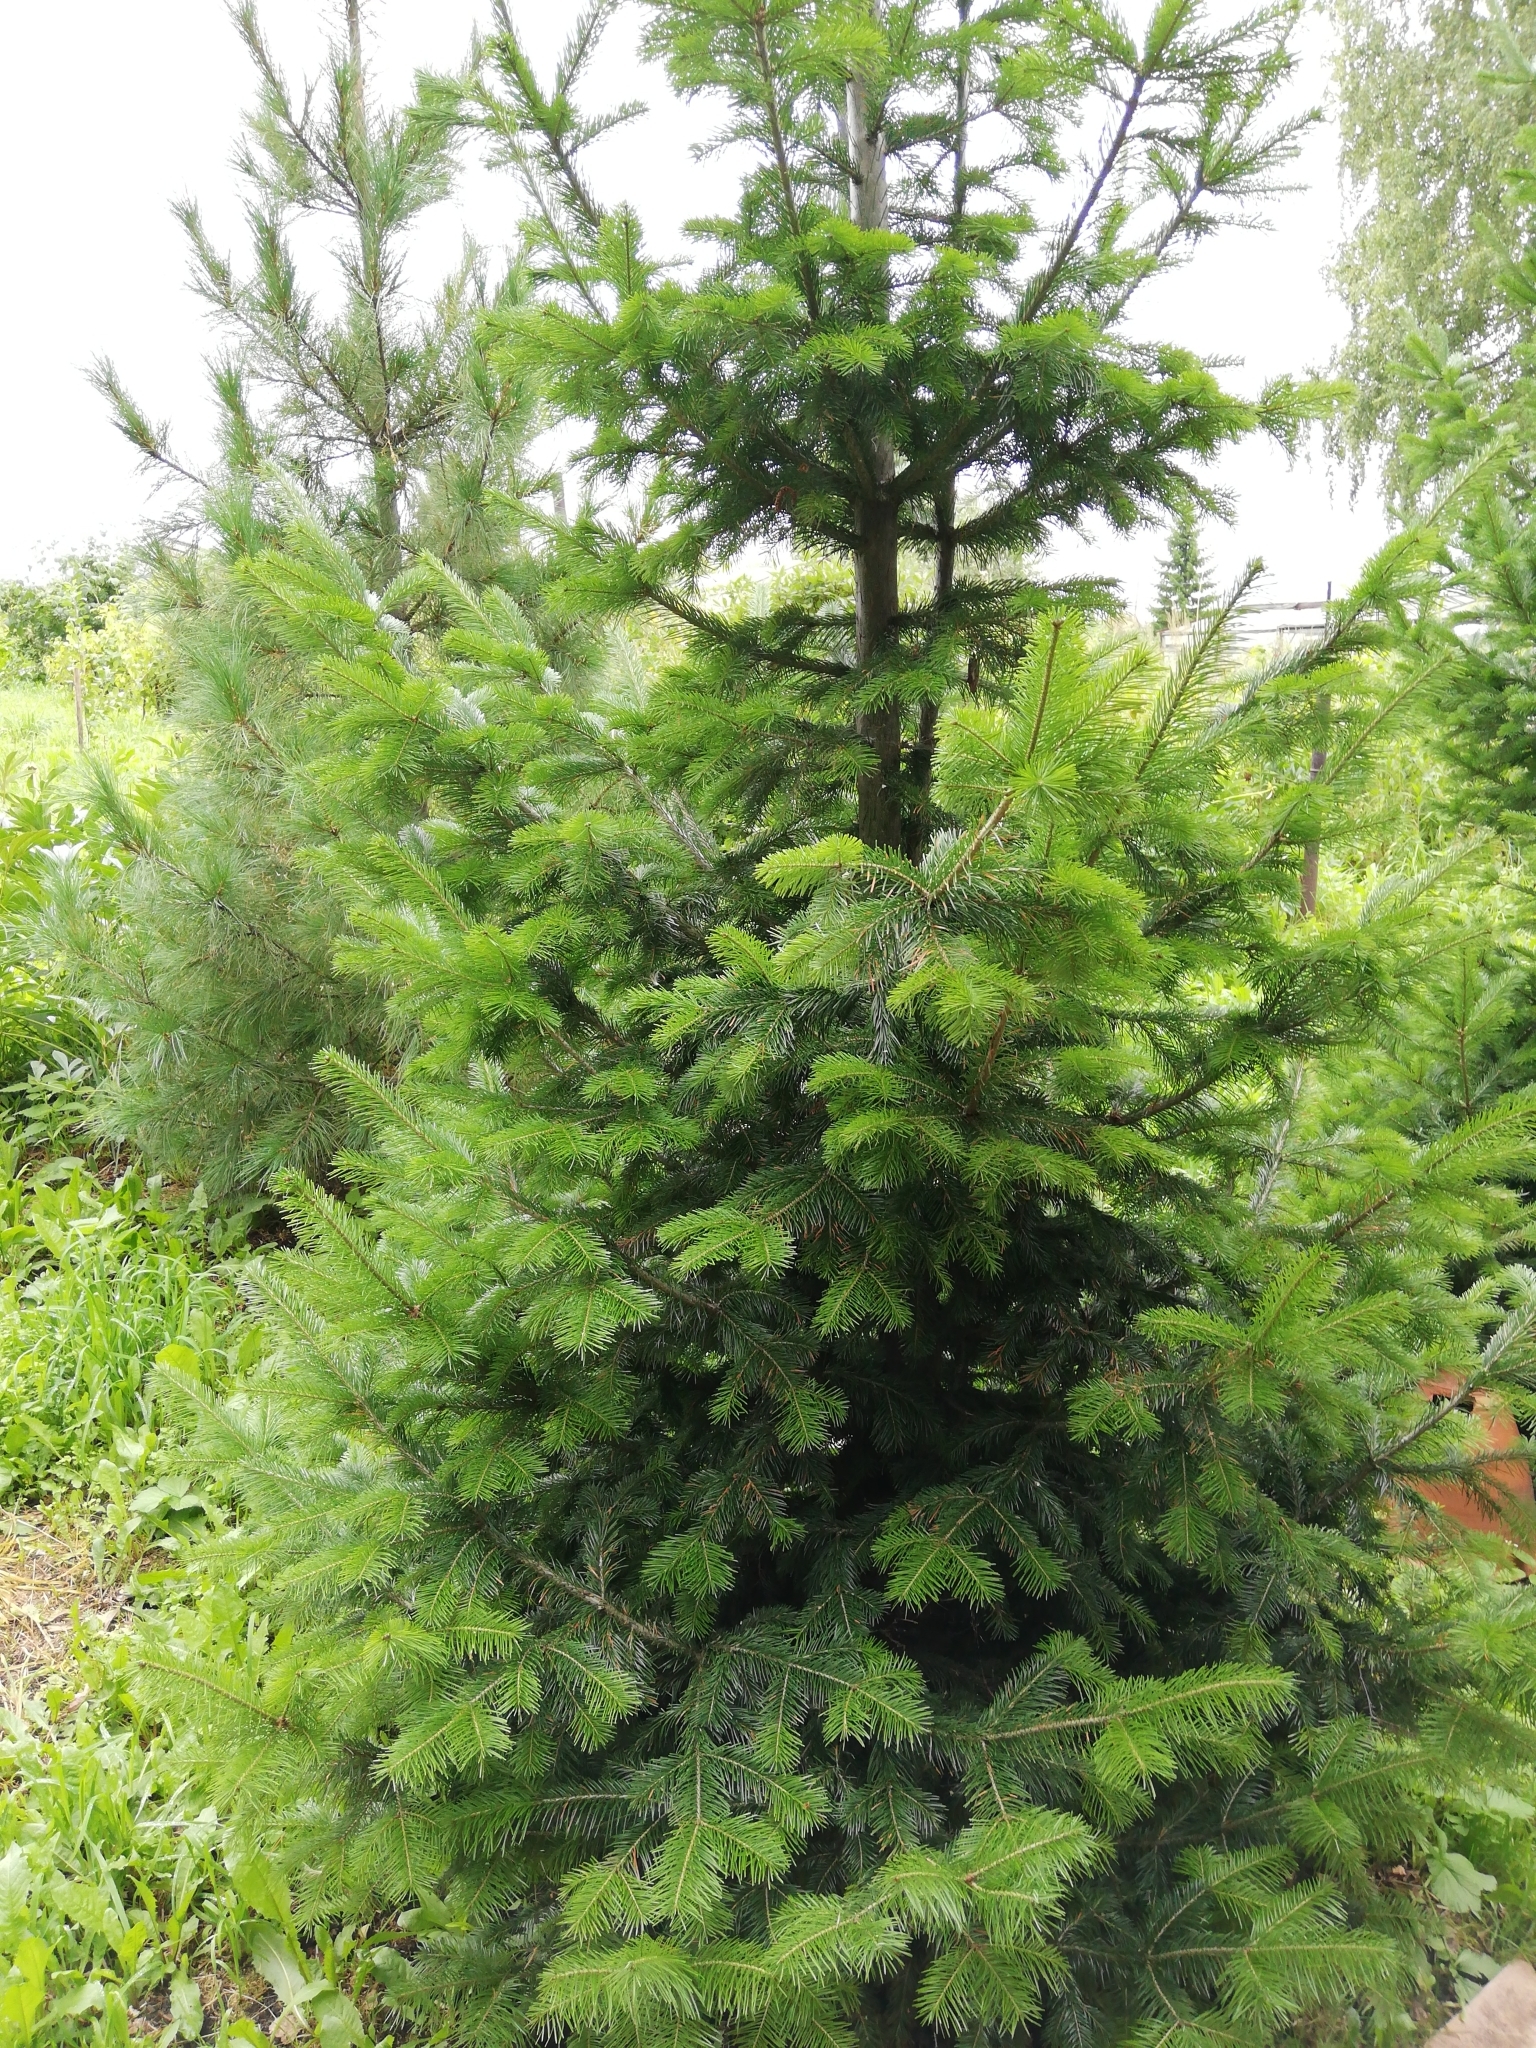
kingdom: Plantae
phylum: Tracheophyta
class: Pinopsida
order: Pinales
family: Pinaceae
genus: Abies
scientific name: Abies sibirica
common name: Siberian fir
